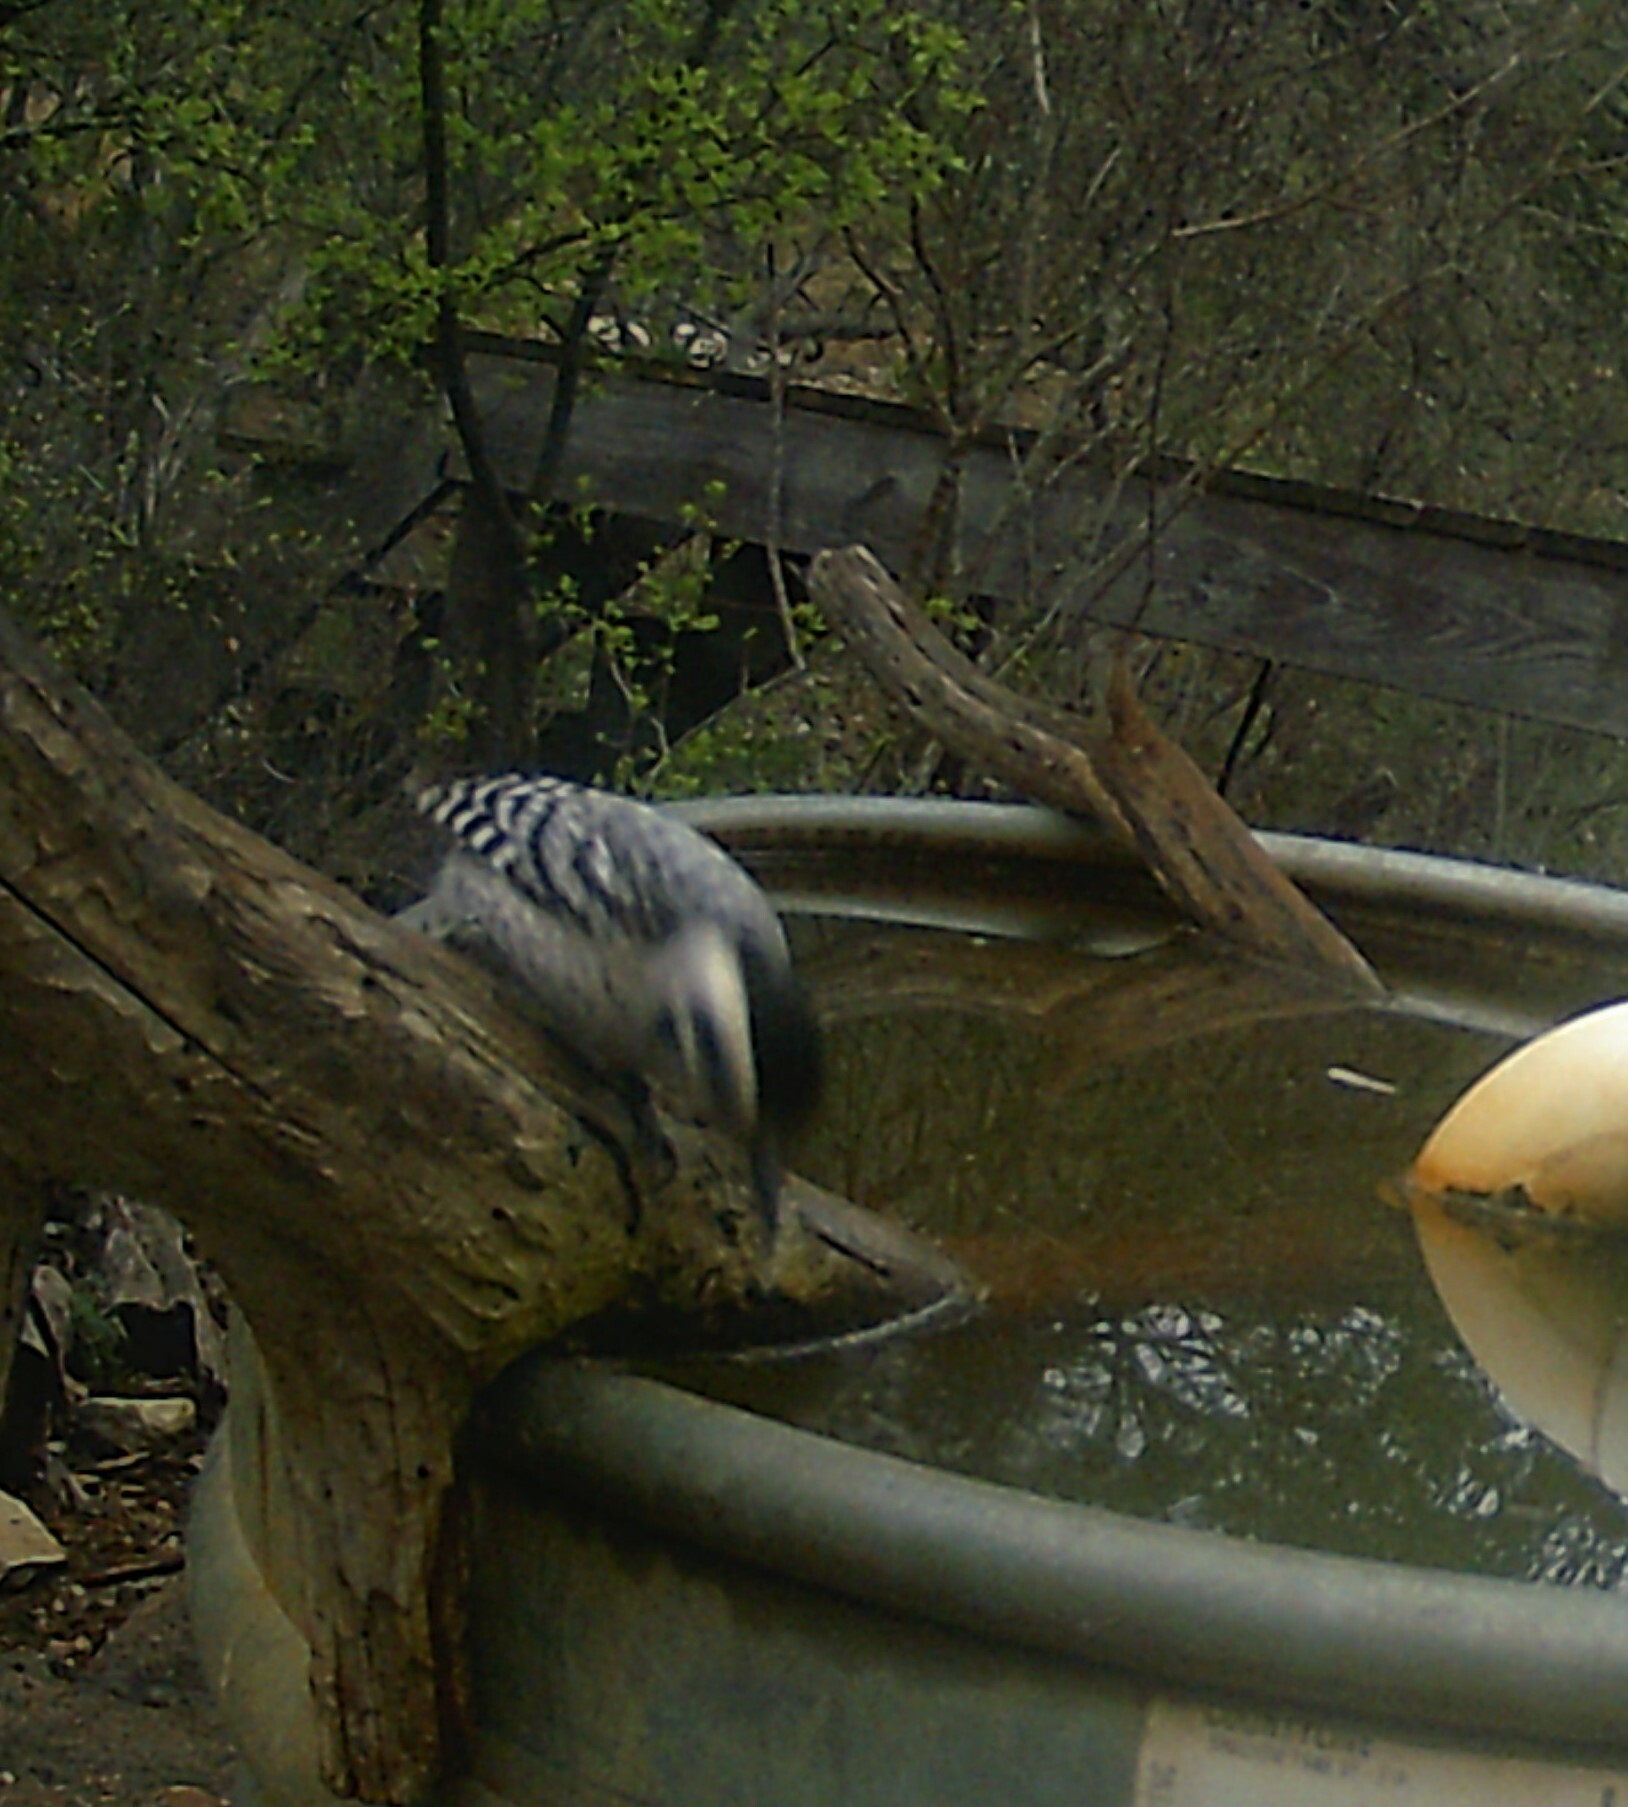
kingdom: Animalia
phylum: Chordata
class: Aves
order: Piciformes
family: Picidae
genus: Dryobates
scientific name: Dryobates scalaris
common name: Ladder-backed woodpecker
